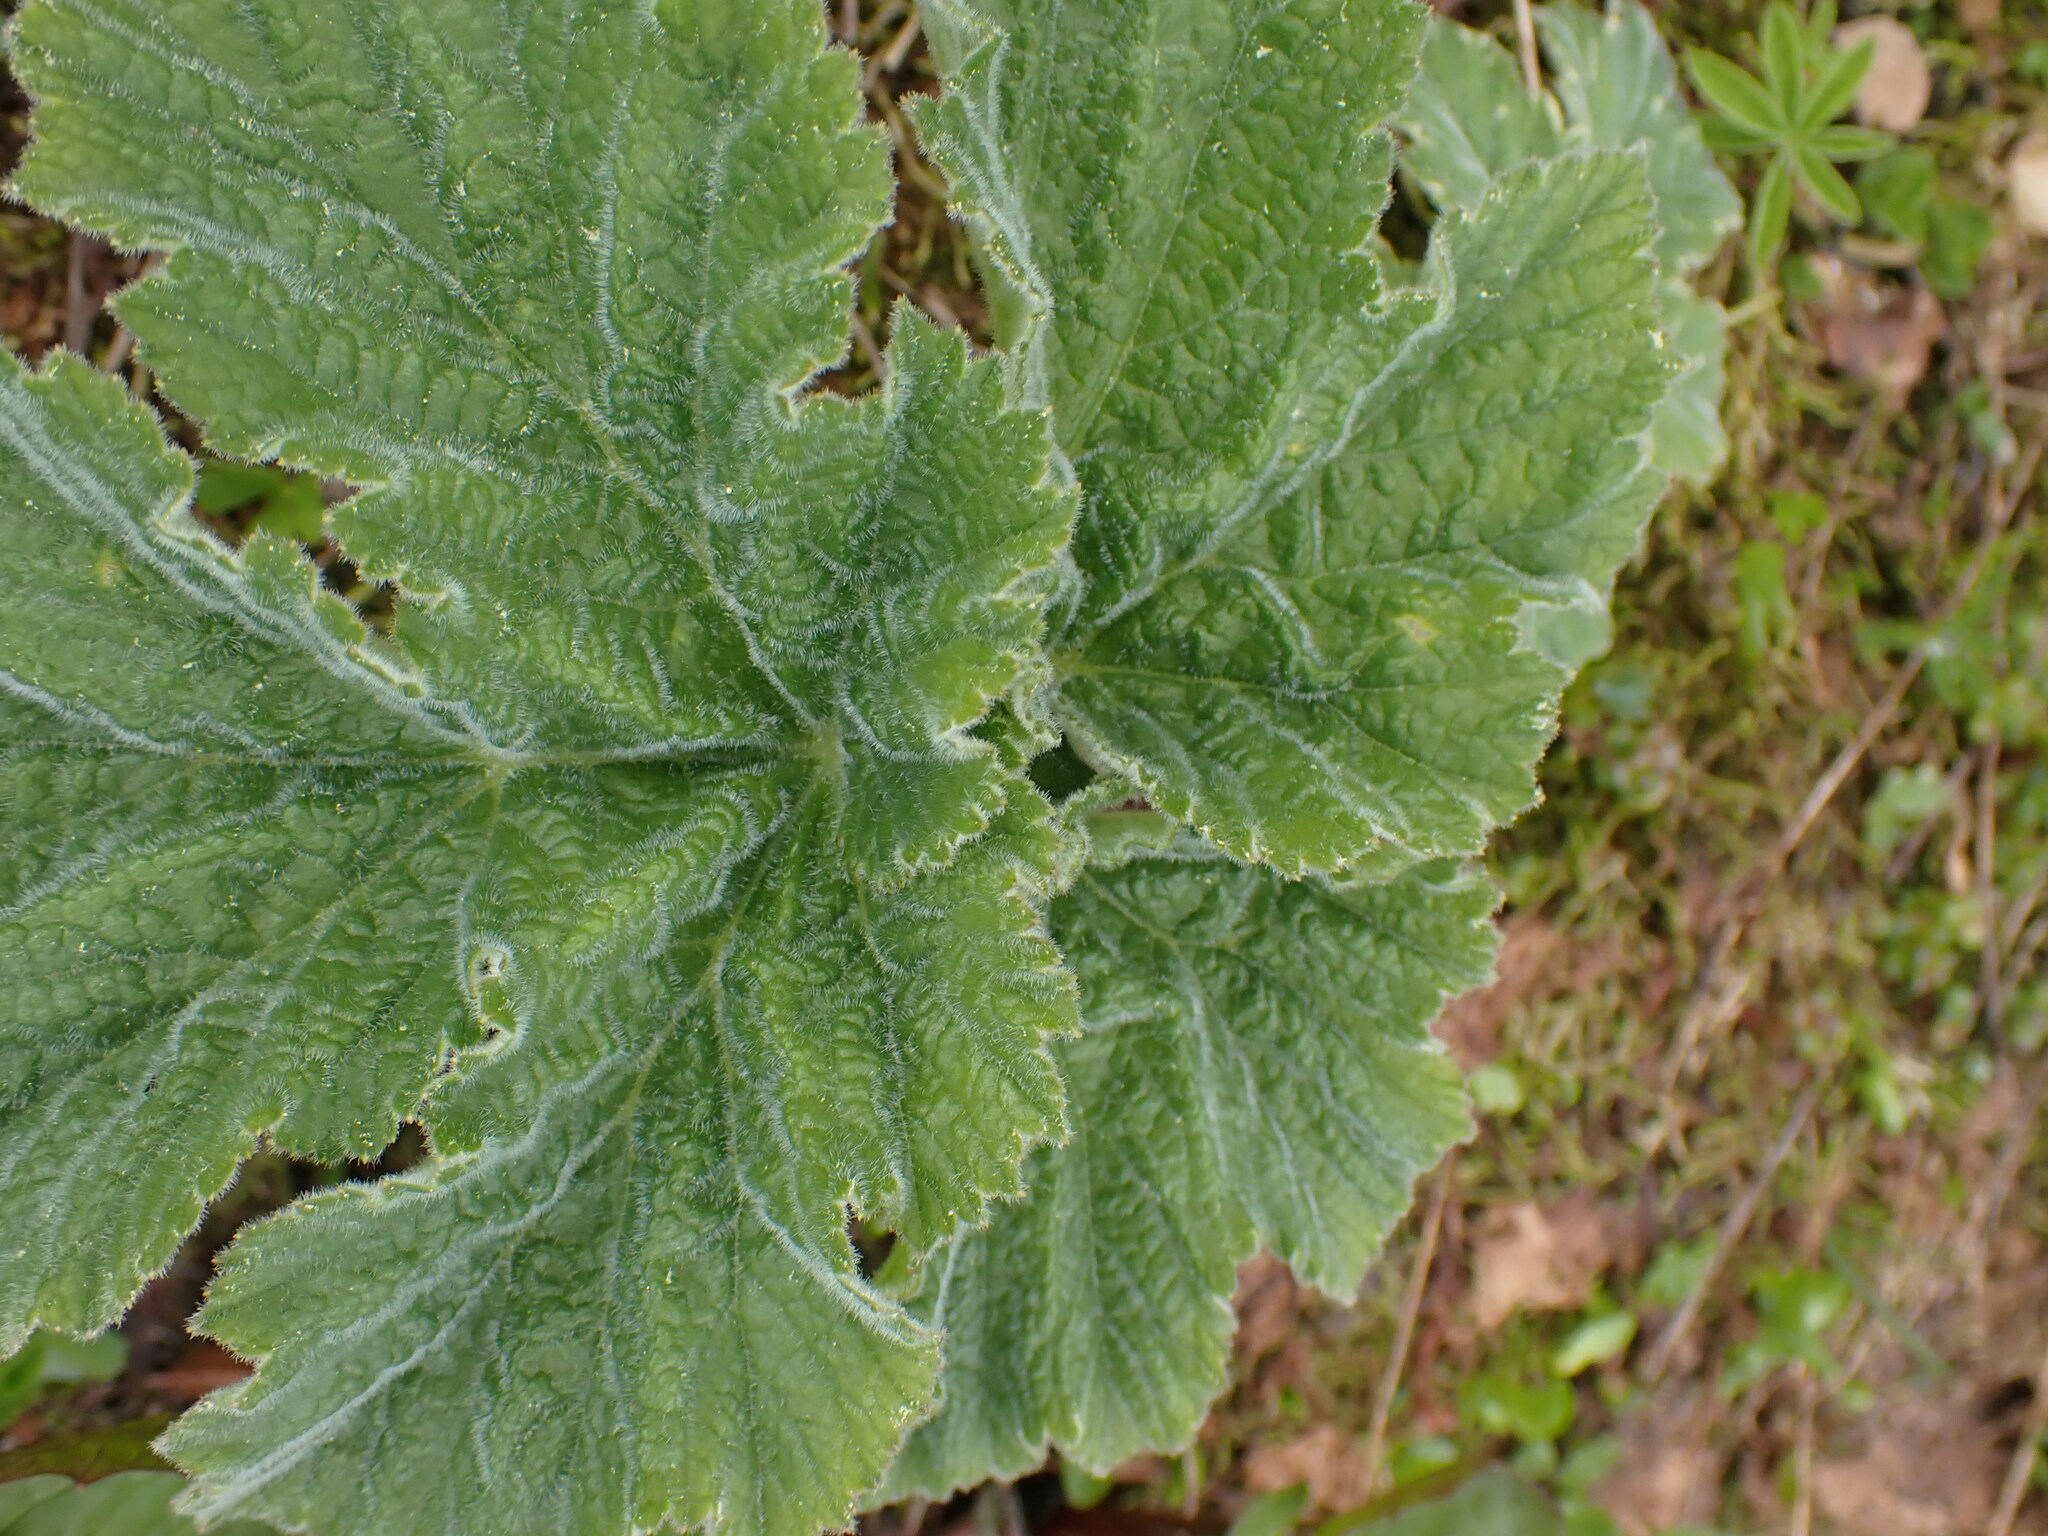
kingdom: Plantae
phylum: Tracheophyta
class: Magnoliopsida
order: Apiales
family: Apiaceae
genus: Heracleum
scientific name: Heracleum maximum
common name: American cow parsnip
